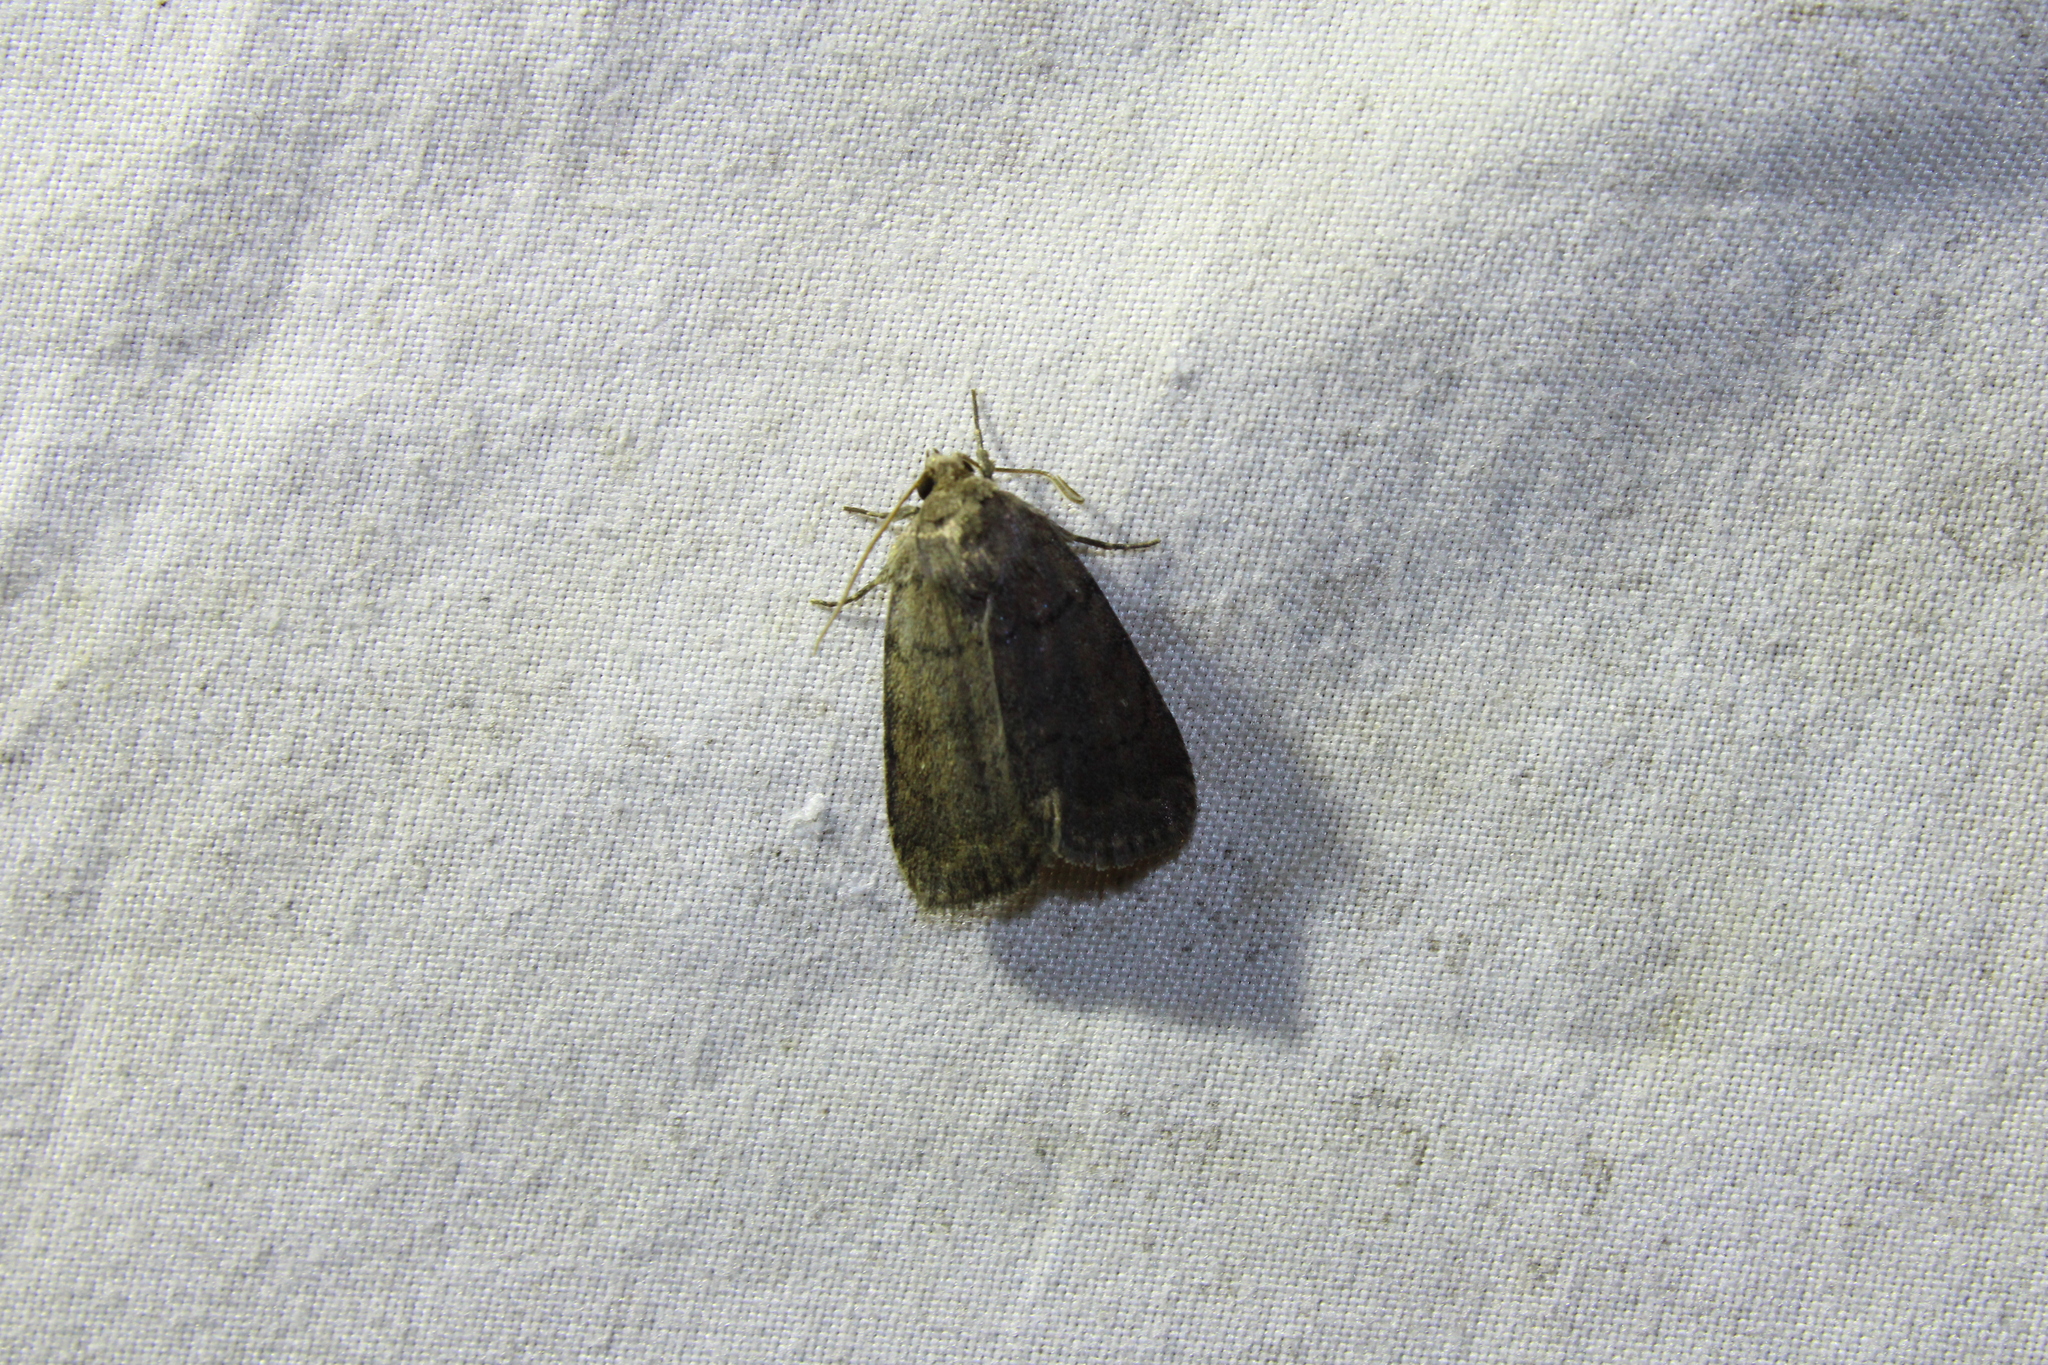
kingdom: Animalia
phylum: Arthropoda
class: Insecta
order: Lepidoptera
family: Noctuidae
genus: Athetis
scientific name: Athetis tarda
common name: Slowpoke moth
